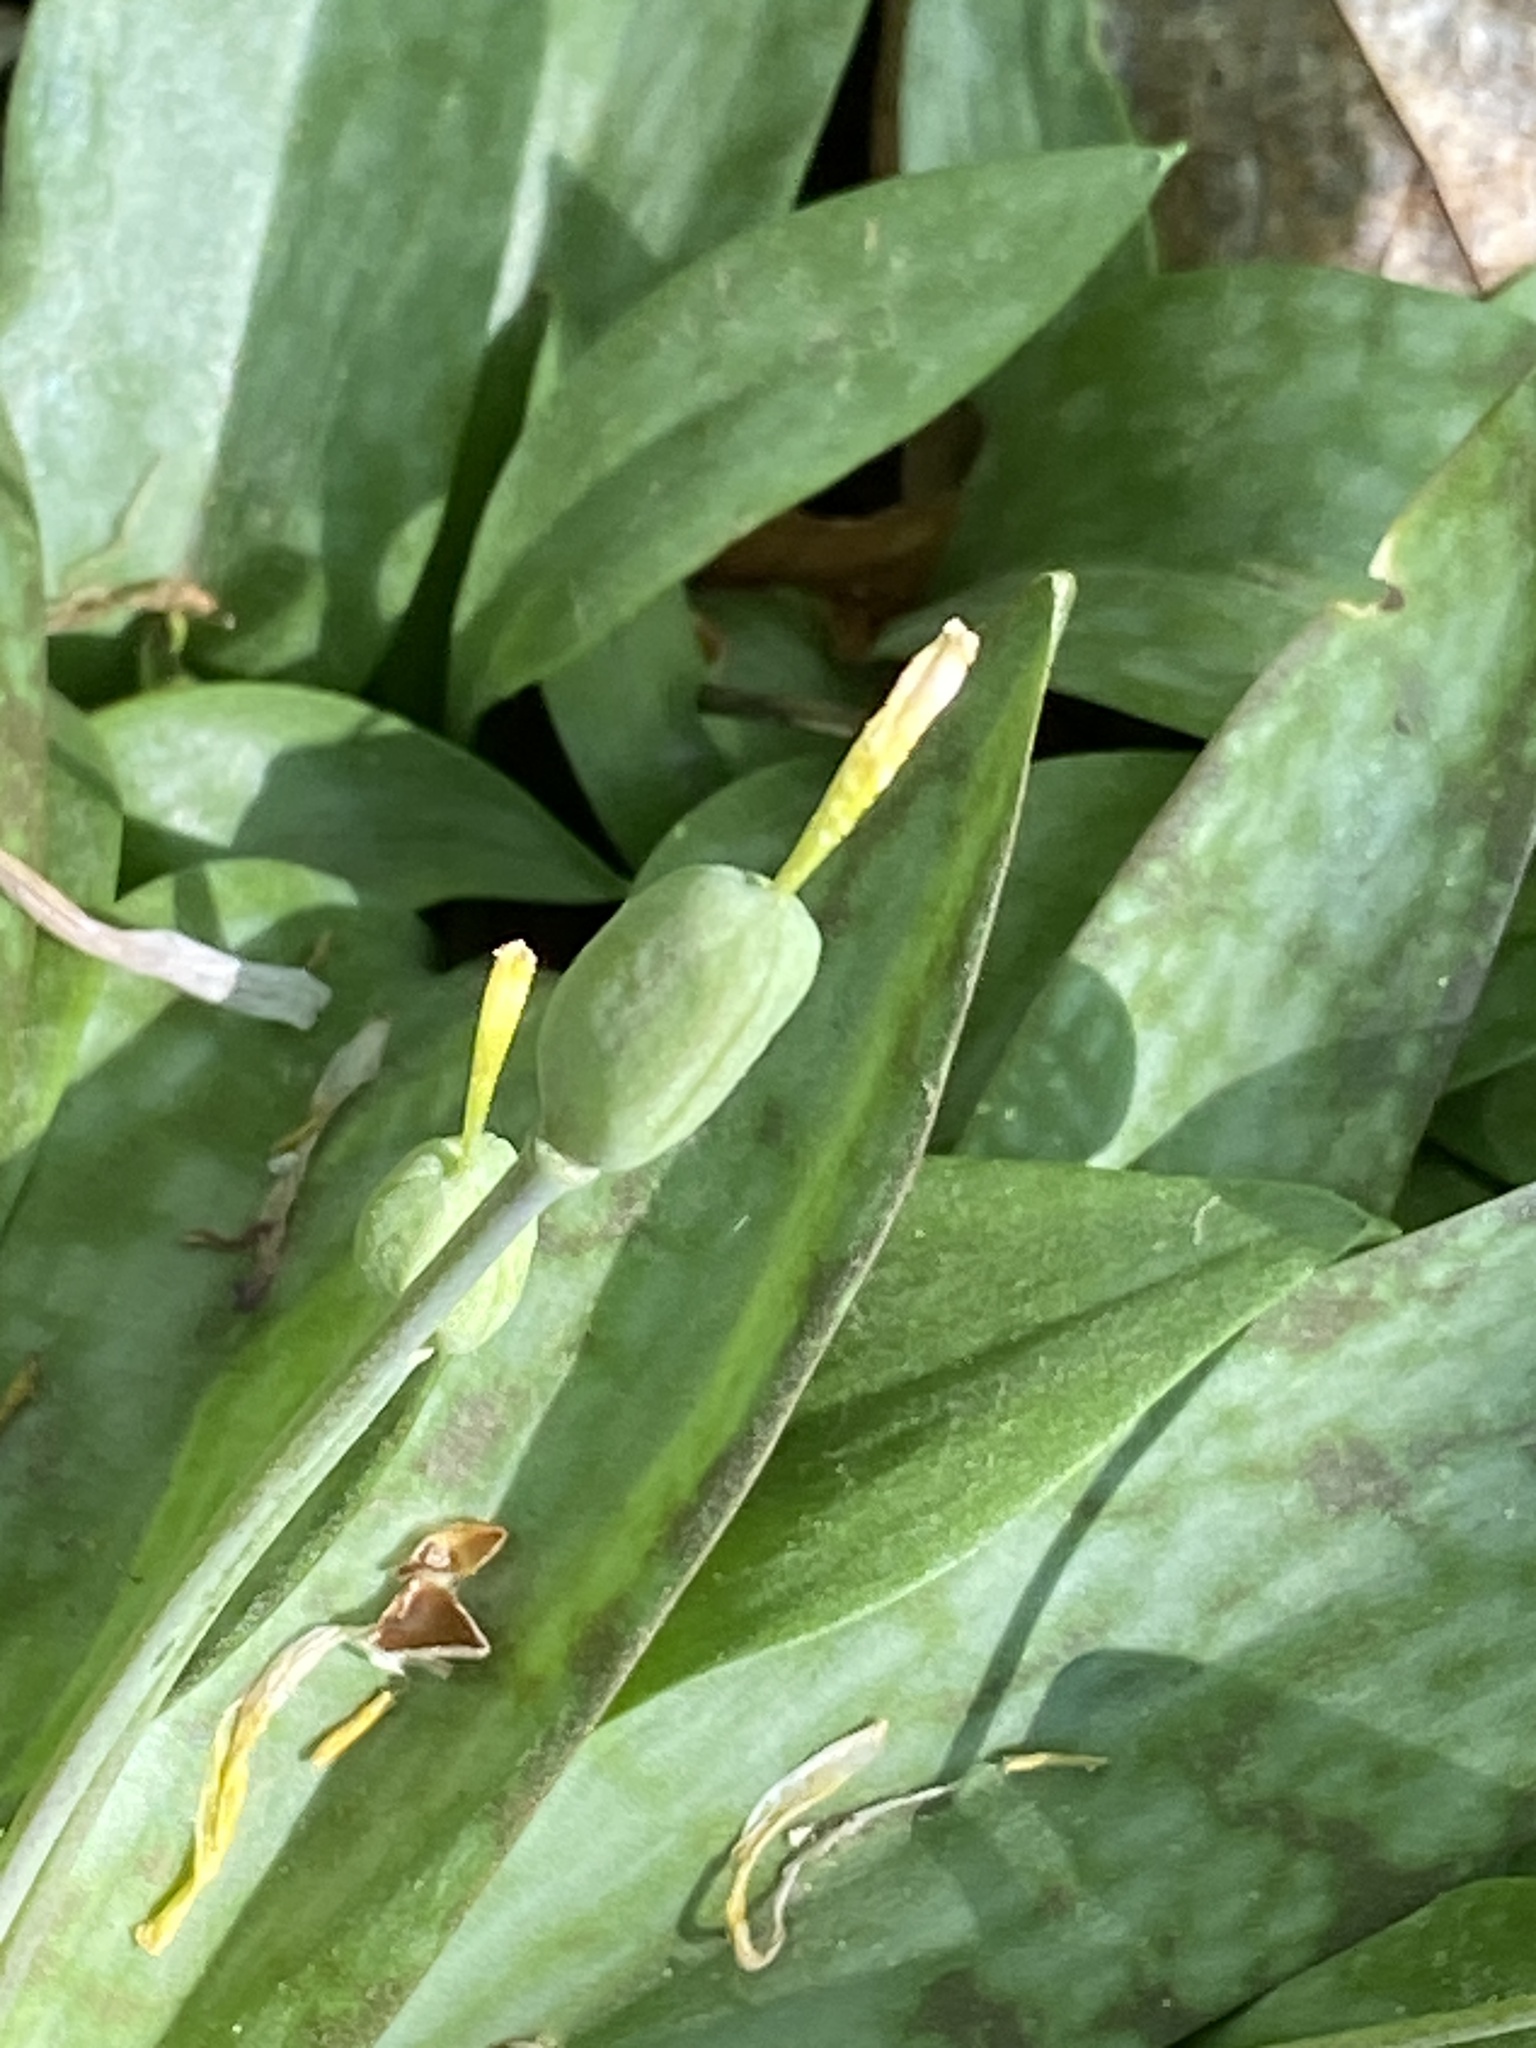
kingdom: Plantae
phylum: Tracheophyta
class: Liliopsida
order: Liliales
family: Liliaceae
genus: Erythronium
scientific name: Erythronium americanum
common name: Yellow adder's-tongue
